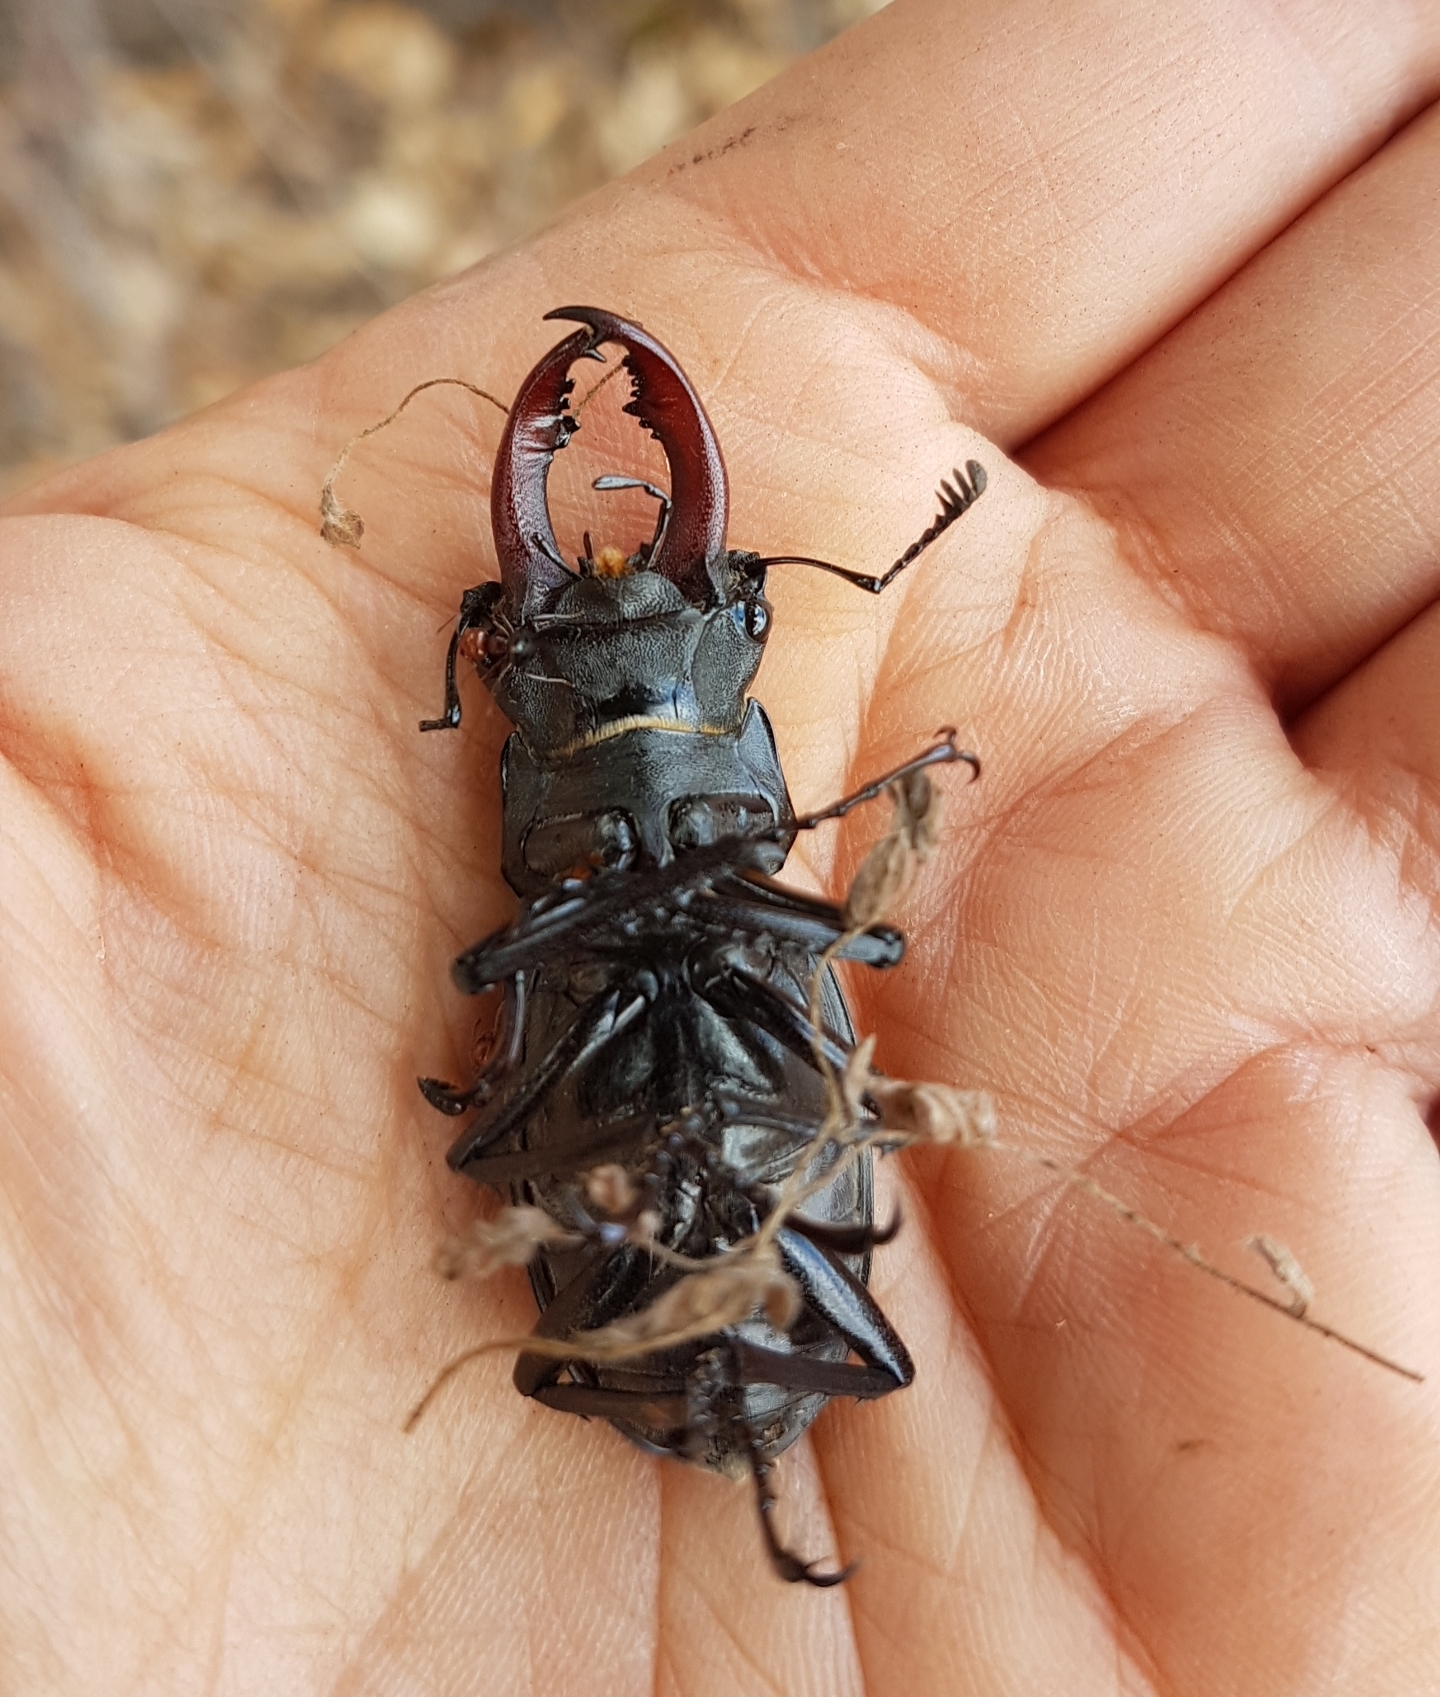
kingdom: Animalia
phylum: Arthropoda
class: Insecta
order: Coleoptera
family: Lucanidae
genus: Lucanus
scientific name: Lucanus cervus
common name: Stag beetle
